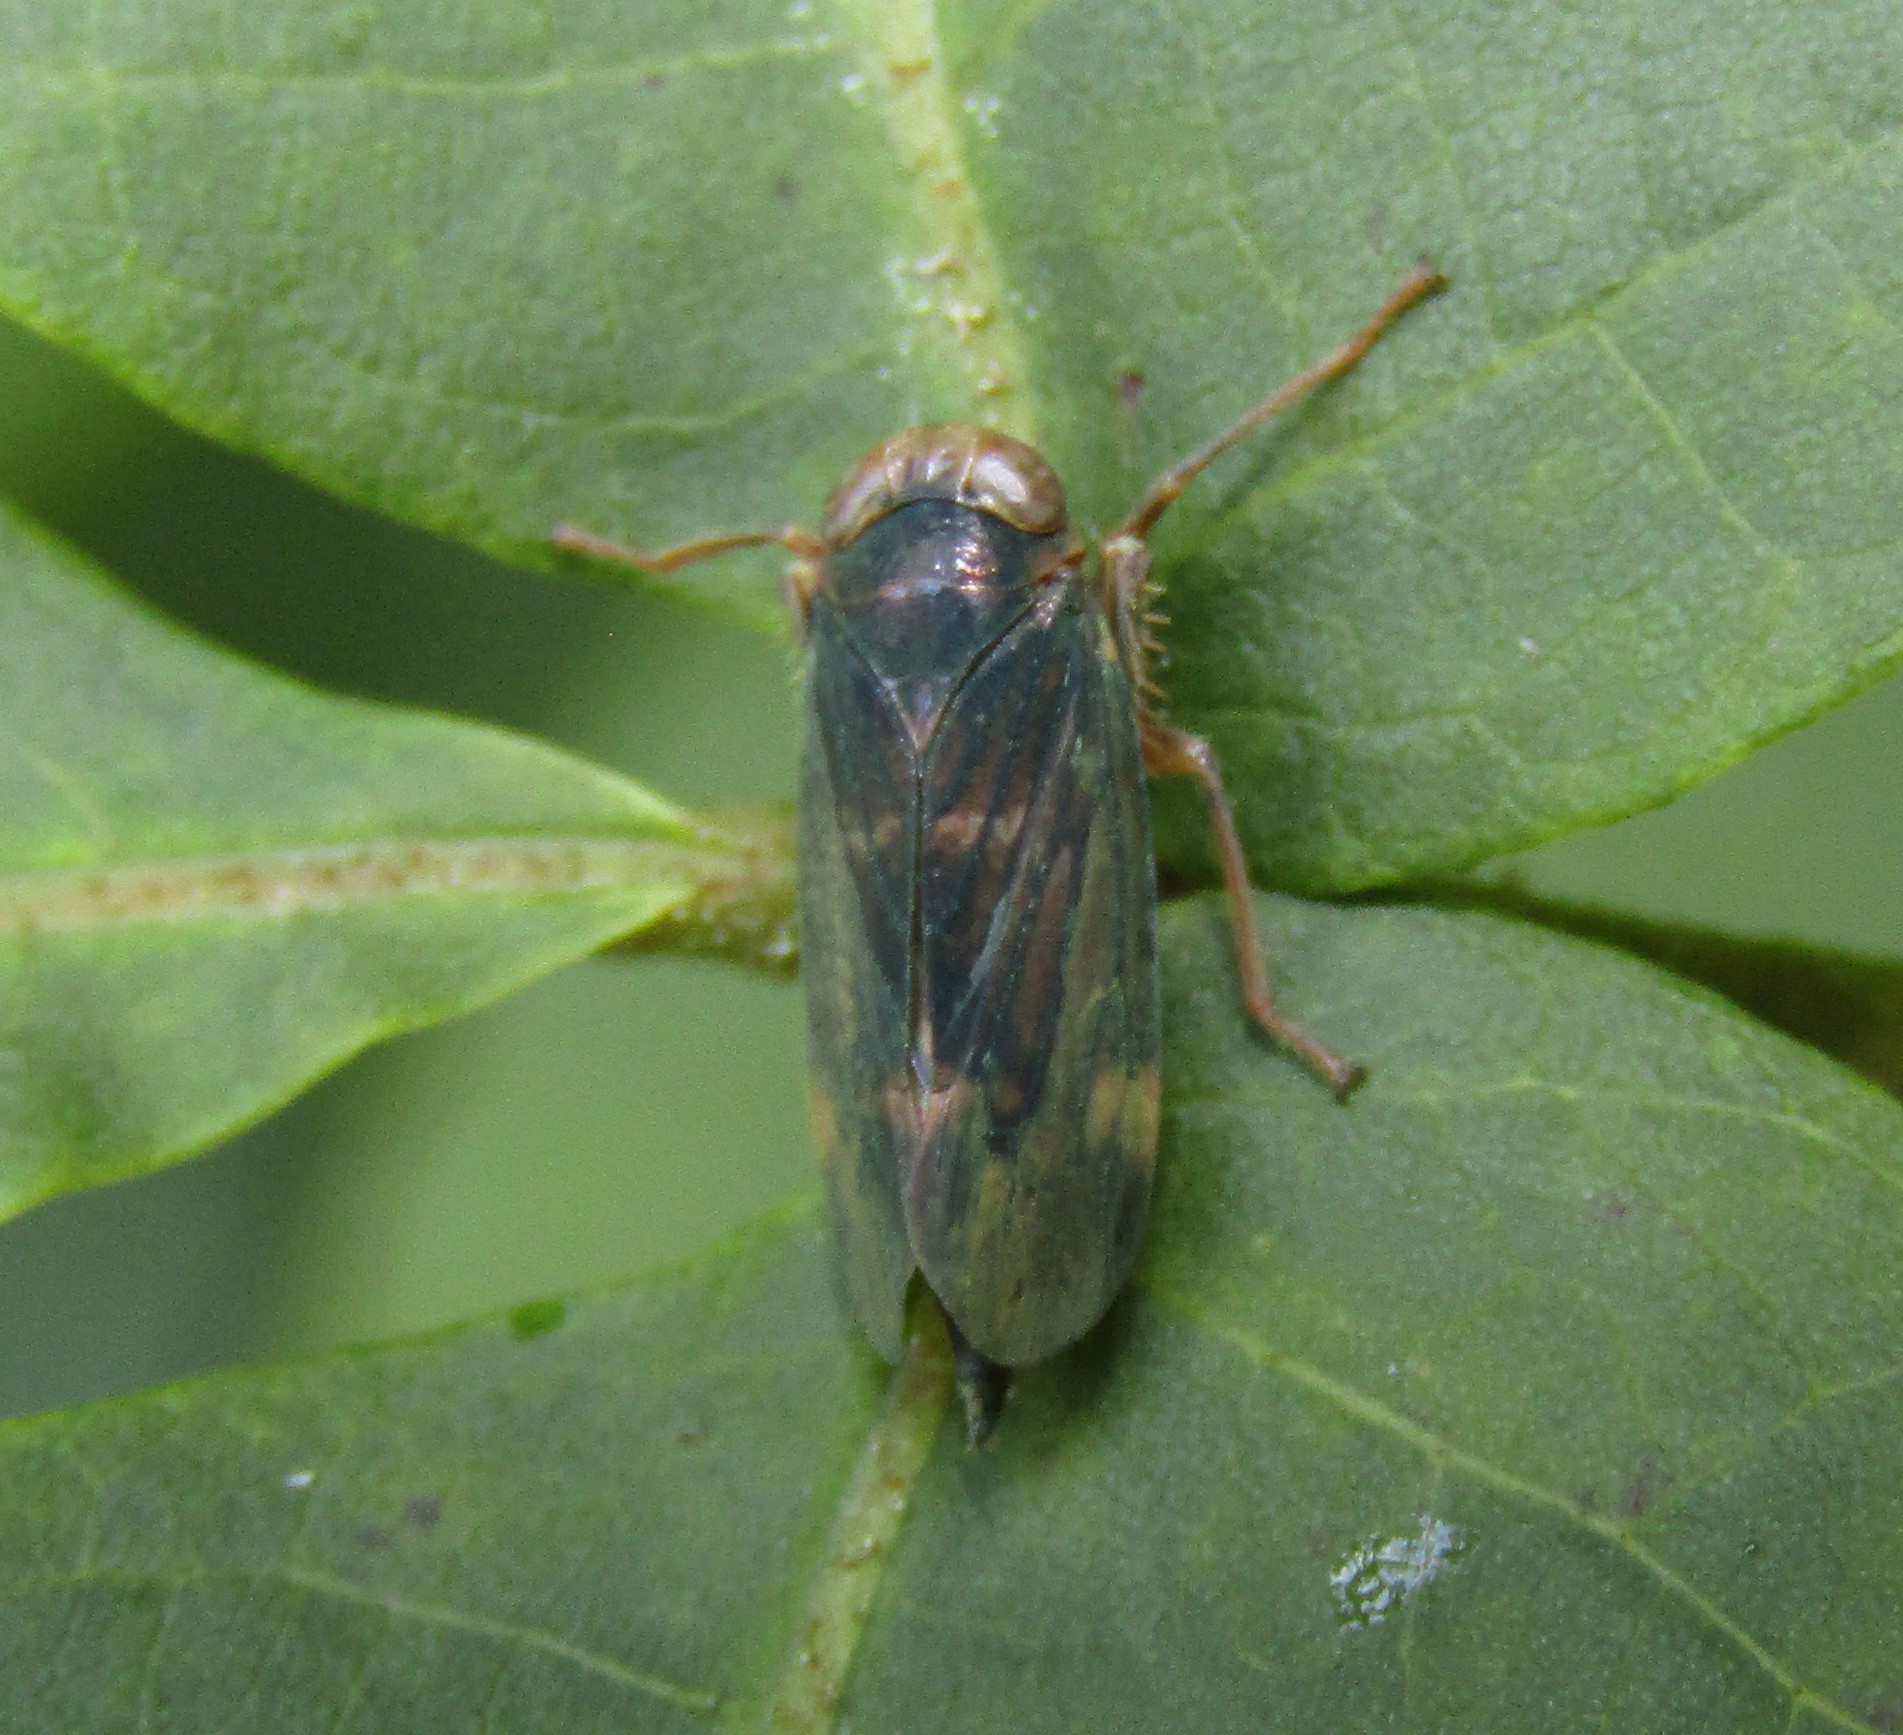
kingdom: Animalia
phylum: Arthropoda
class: Insecta
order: Hemiptera
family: Cicadellidae
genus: Jikradia
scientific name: Jikradia olitoria
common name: Coppery leafhopper
